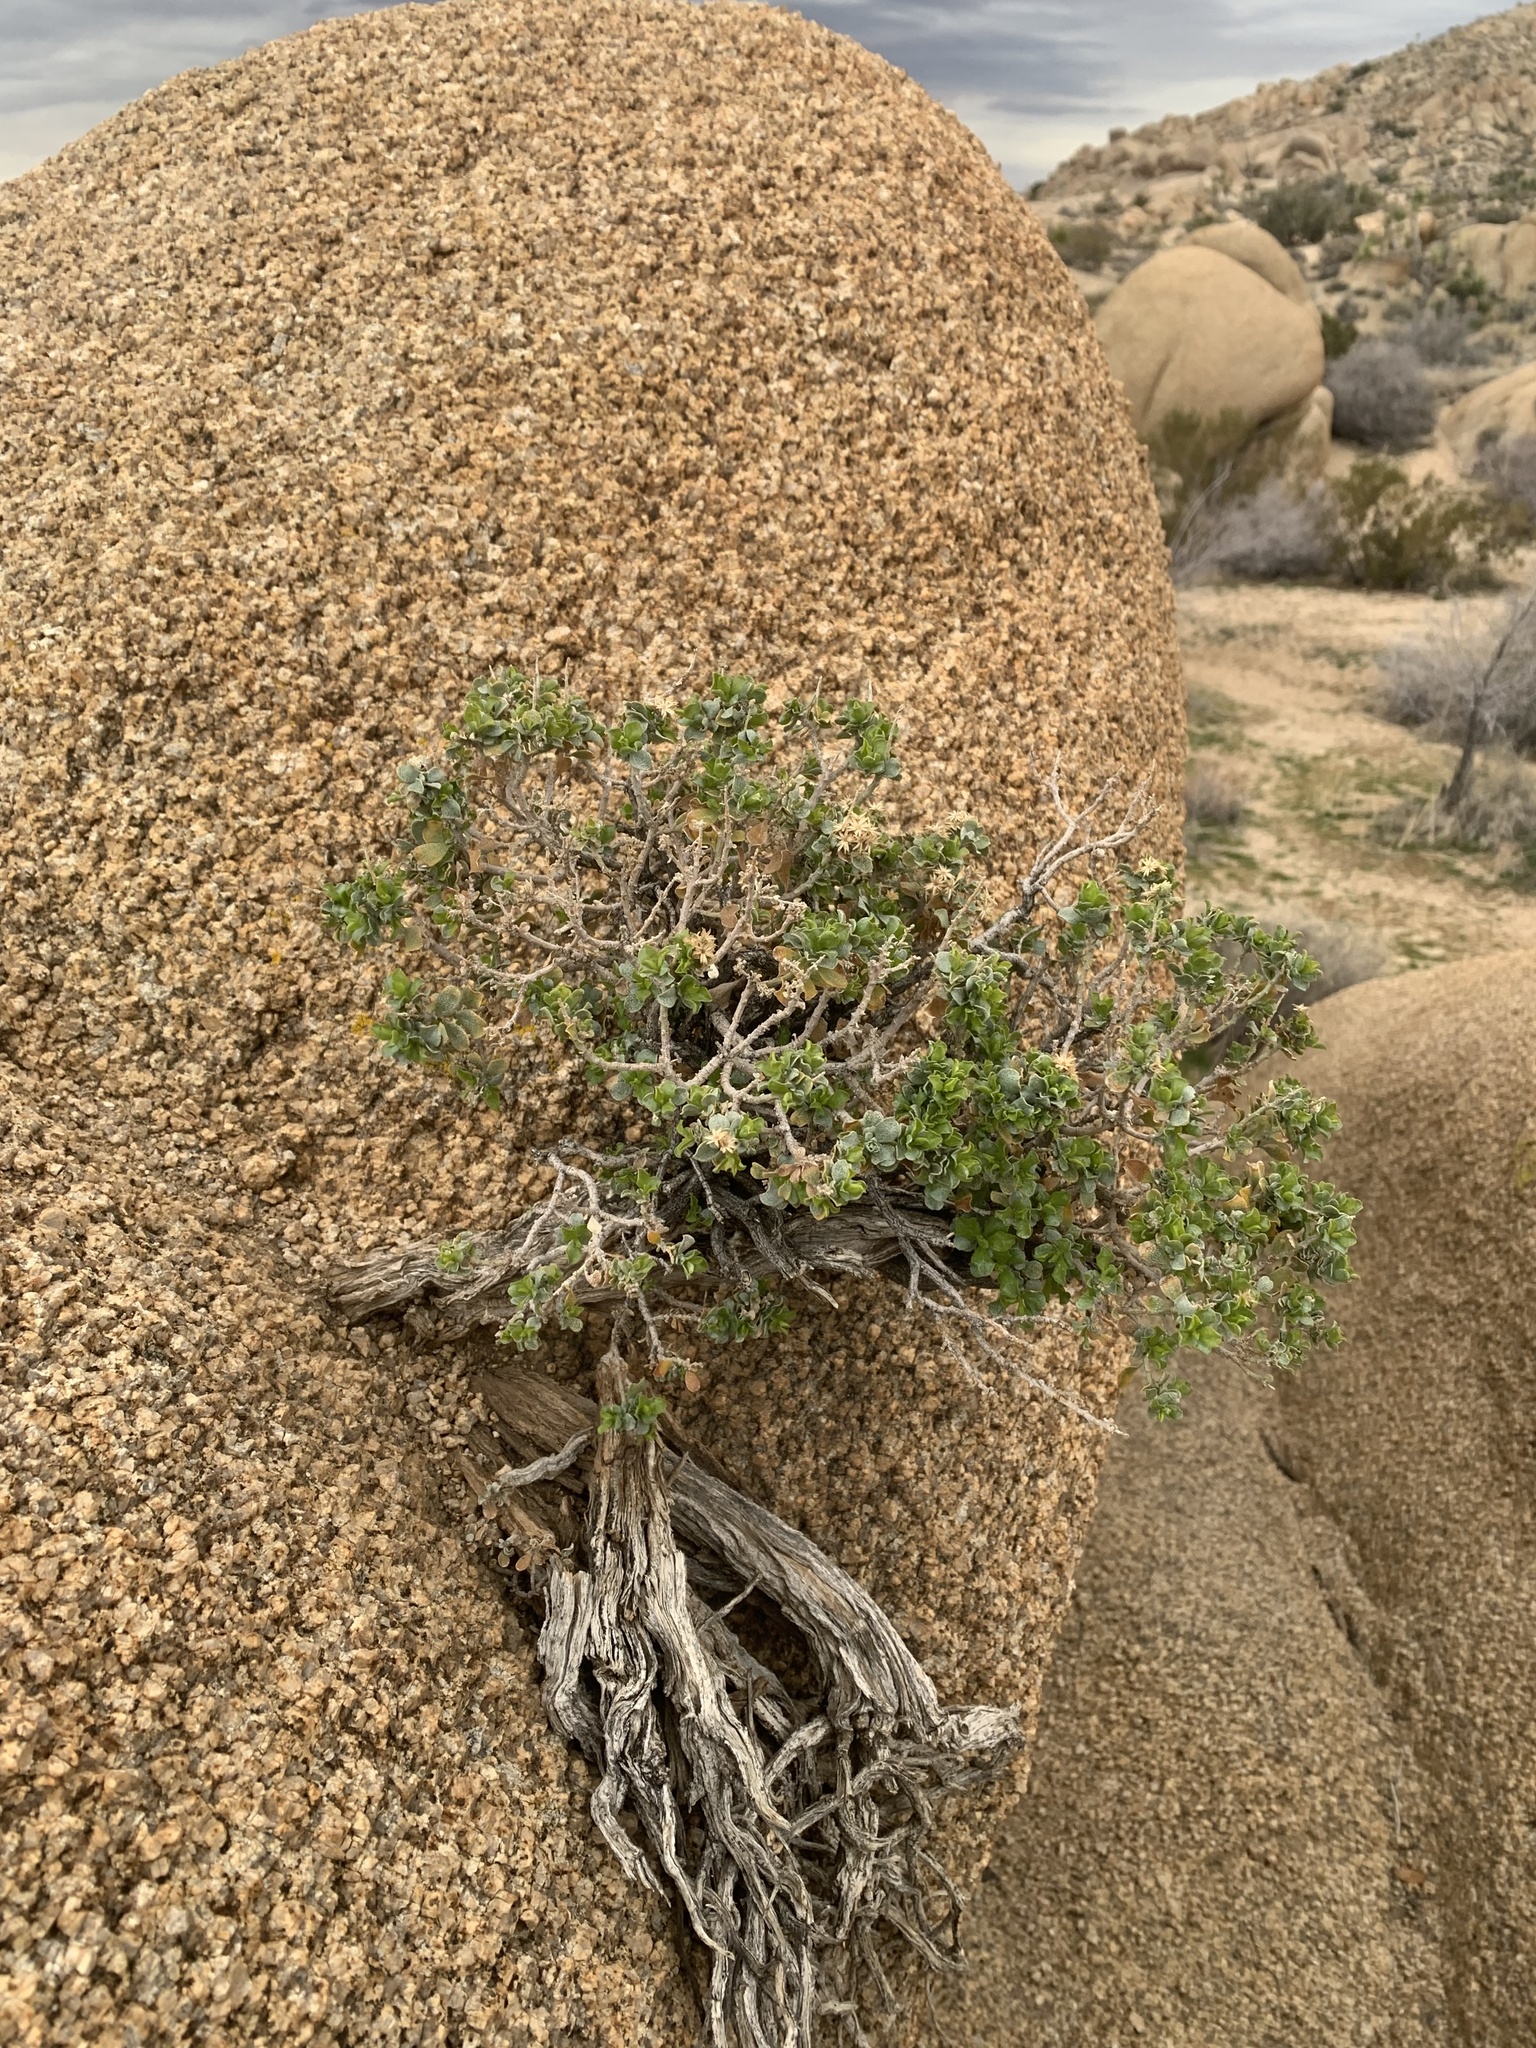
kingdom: Plantae
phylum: Tracheophyta
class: Magnoliopsida
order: Asterales
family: Asteraceae
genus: Ericameria
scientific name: Ericameria cuneata
